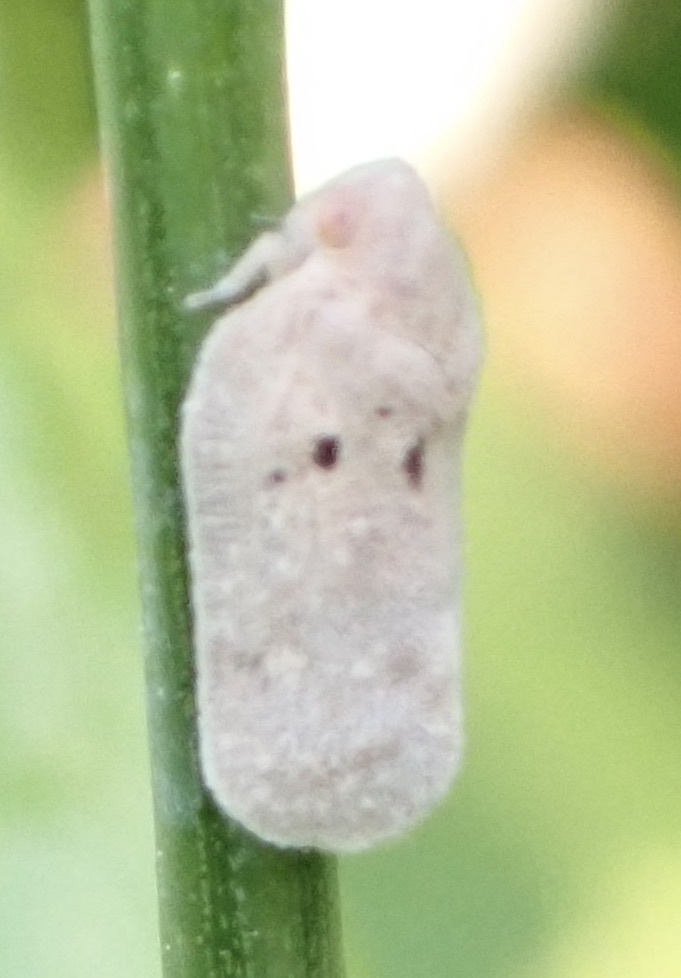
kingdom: Animalia
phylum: Arthropoda
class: Insecta
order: Hemiptera
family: Flatidae
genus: Melormenis
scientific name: Melormenis basalis
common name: Puerto rican planthopper
